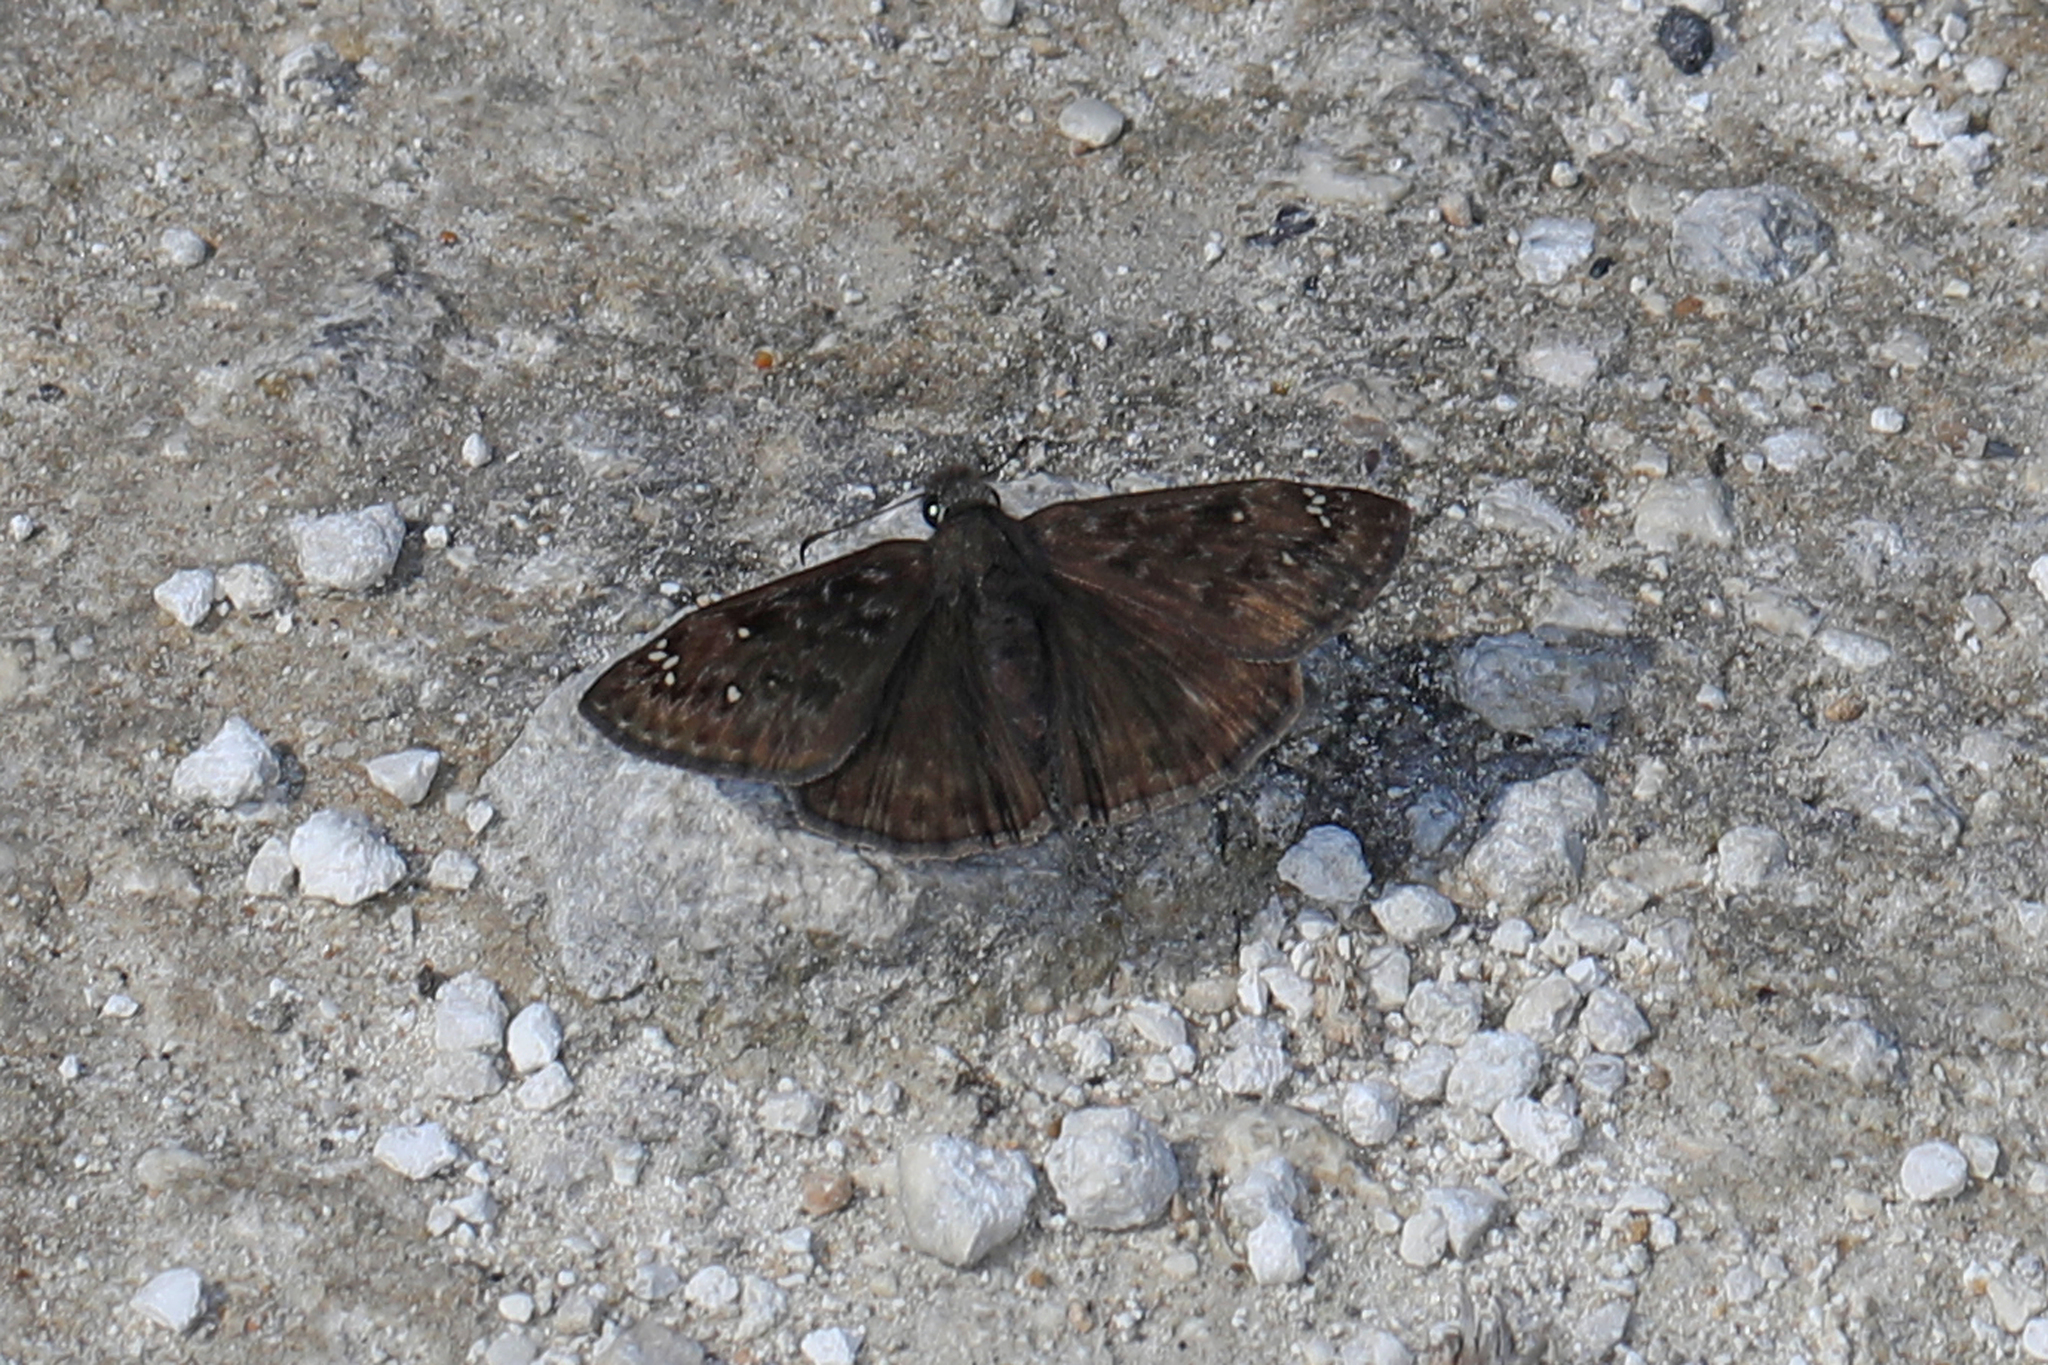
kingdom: Animalia
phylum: Arthropoda
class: Insecta
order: Lepidoptera
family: Hesperiidae
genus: Erynnis
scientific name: Erynnis horatius
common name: Horace's duskywing
